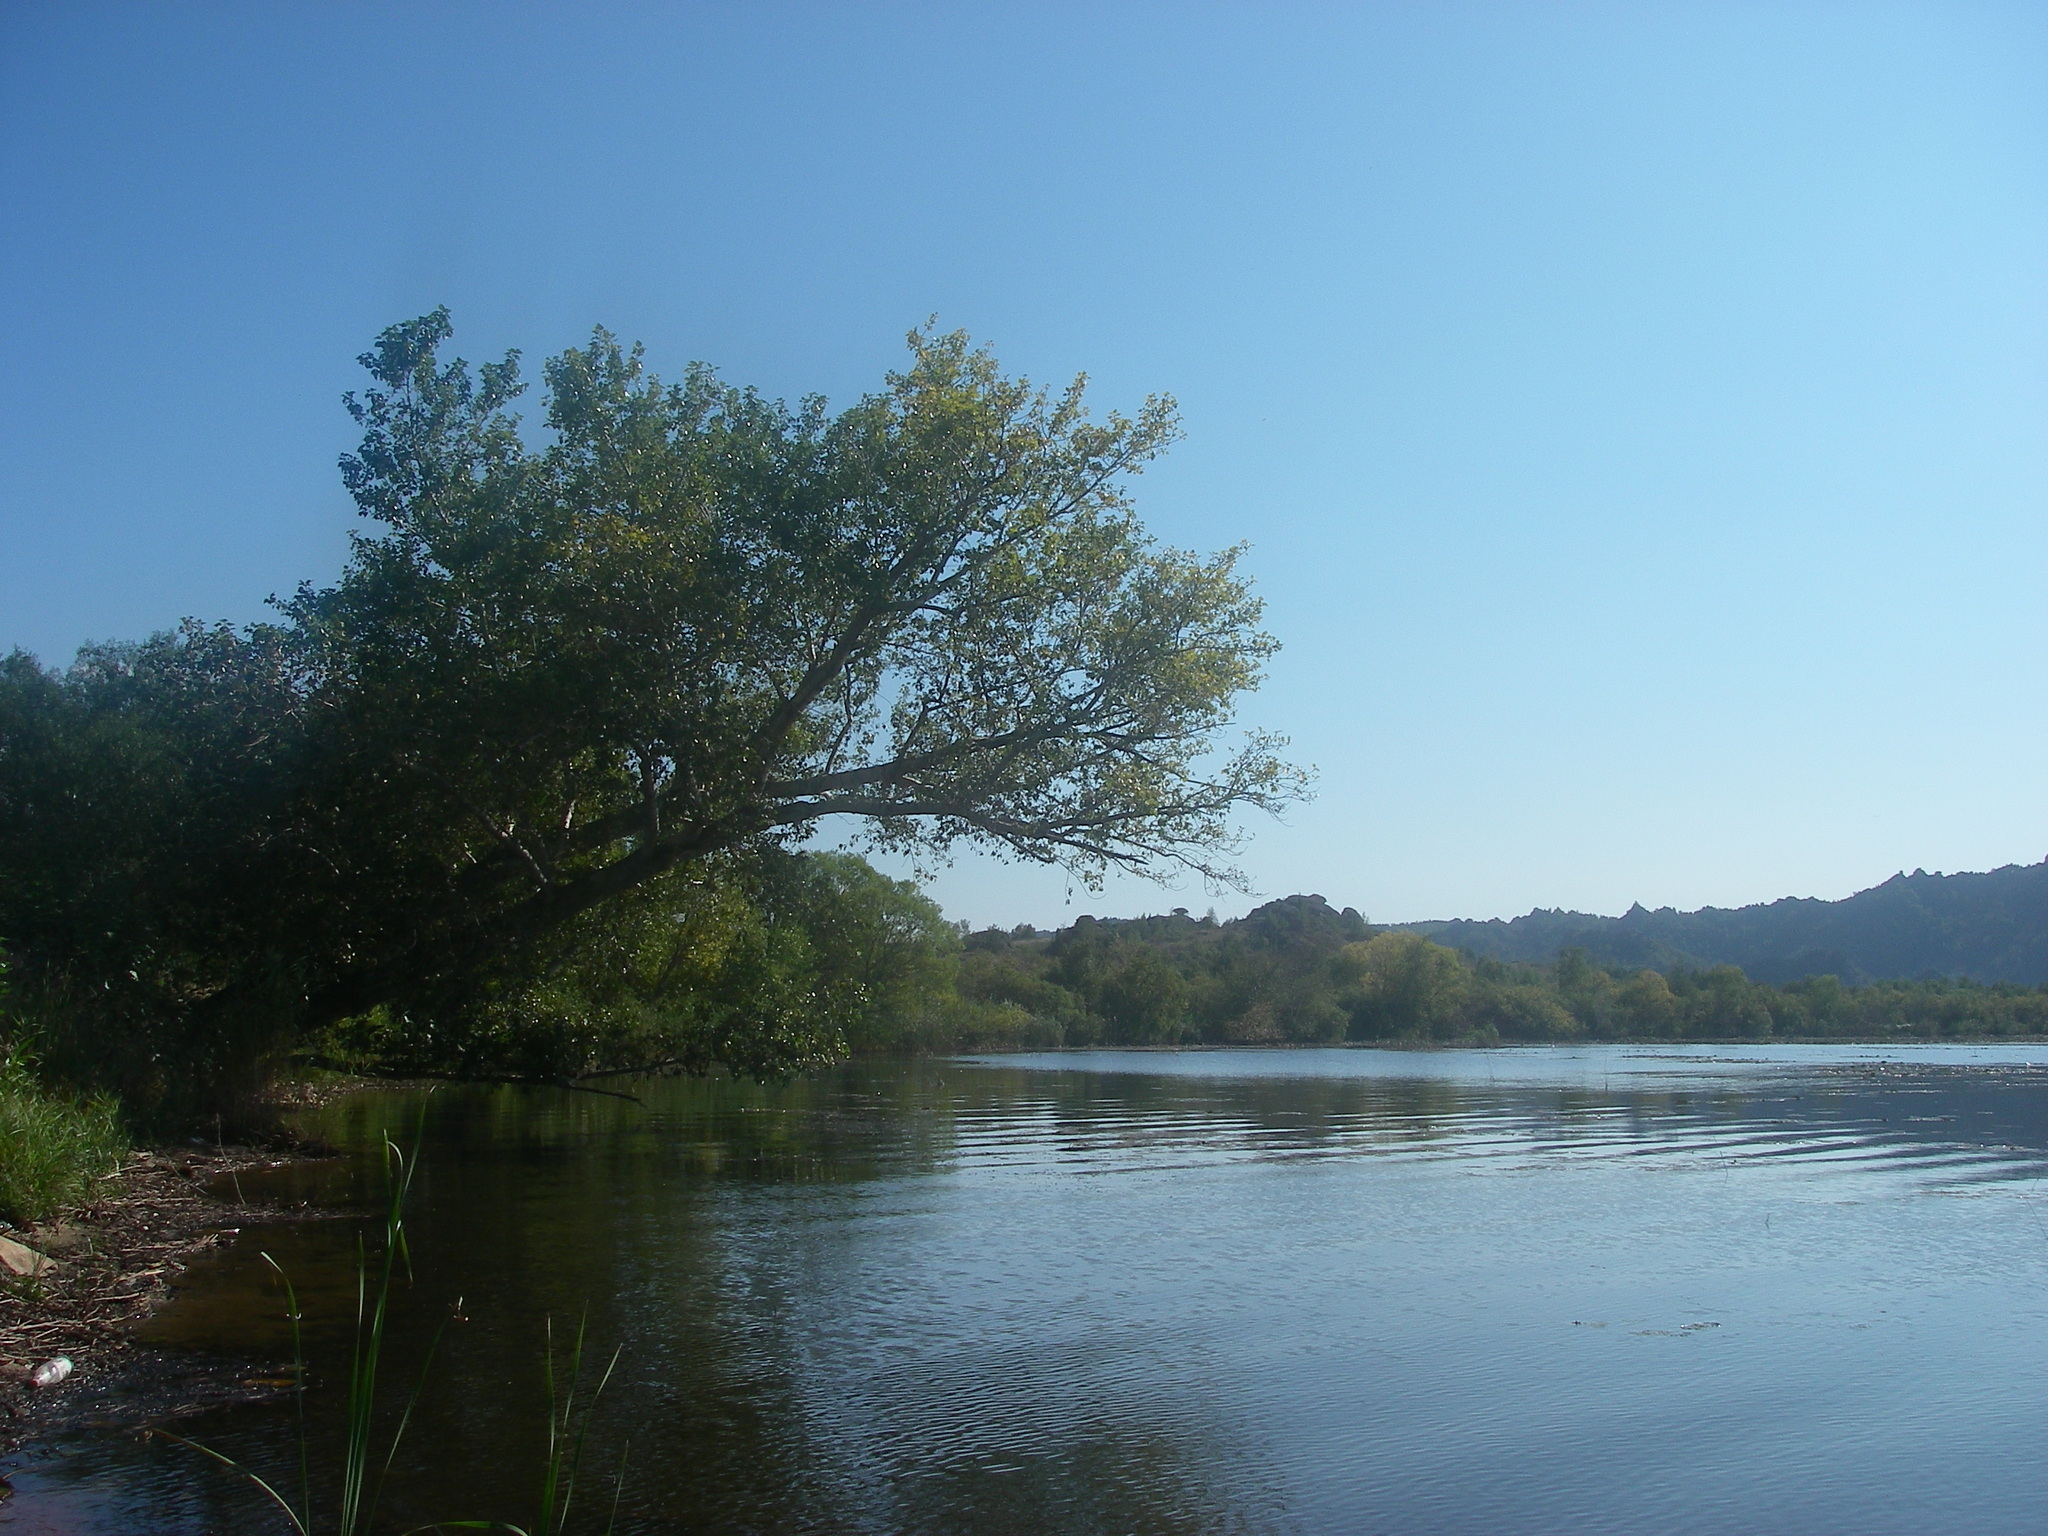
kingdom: Plantae
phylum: Tracheophyta
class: Magnoliopsida
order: Malpighiales
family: Salicaceae
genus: Populus
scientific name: Populus nigra
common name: Black poplar
